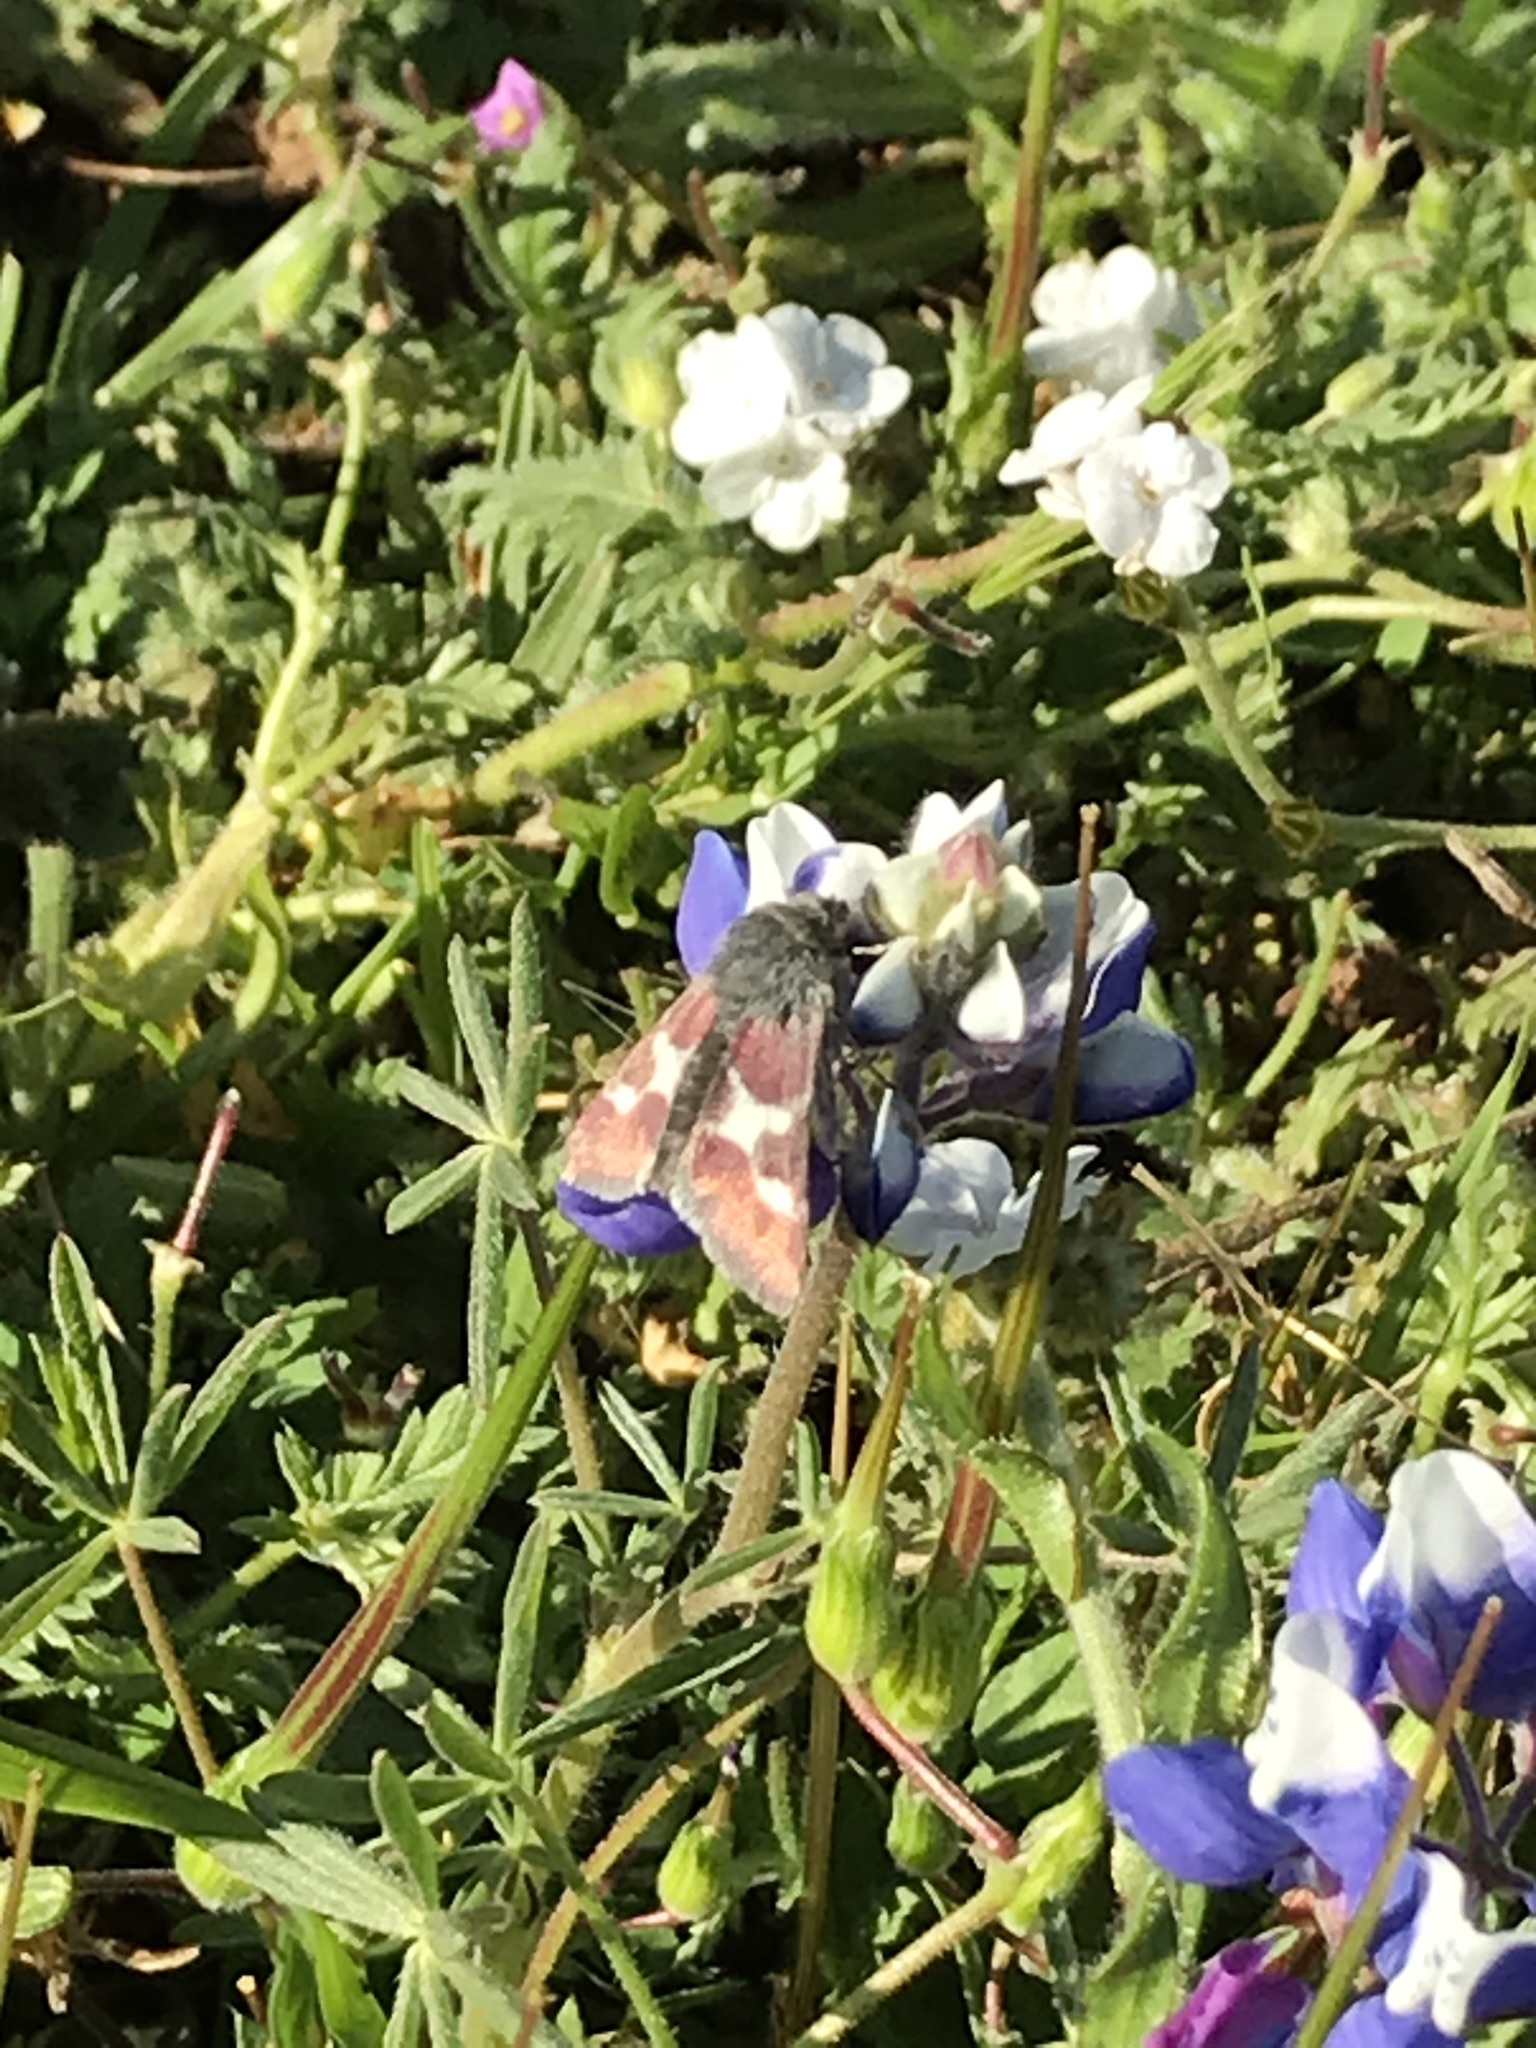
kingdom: Animalia
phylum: Arthropoda
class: Insecta
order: Lepidoptera
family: Noctuidae
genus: Schinia
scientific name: Schinia suetus
